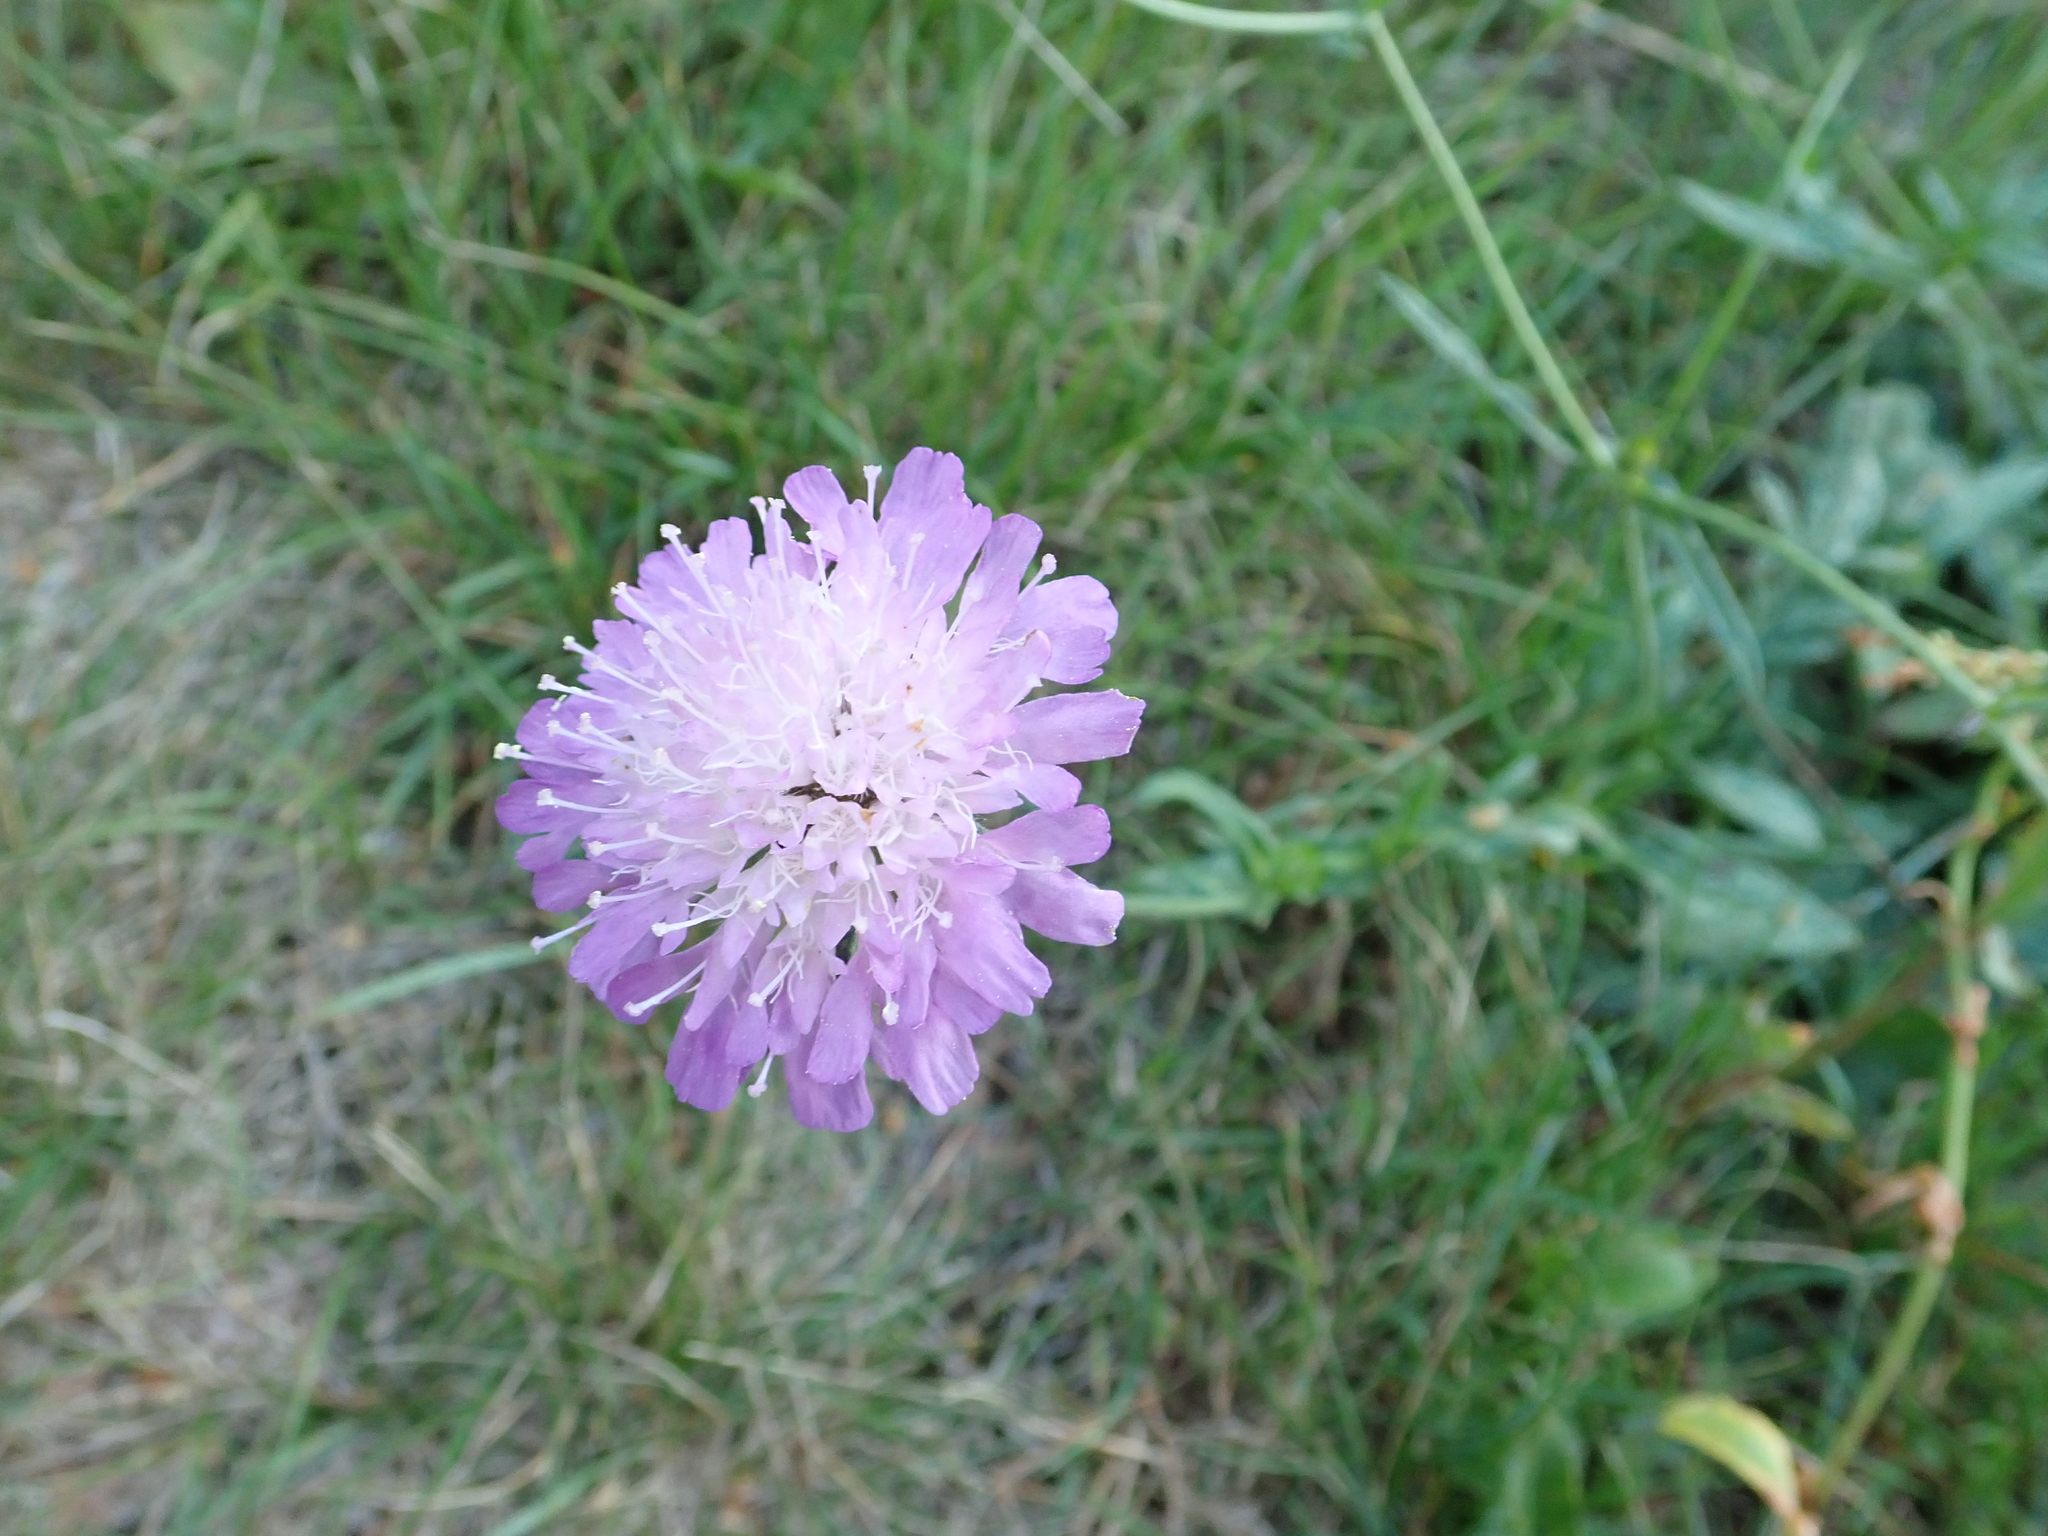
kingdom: Plantae
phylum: Tracheophyta
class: Magnoliopsida
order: Dipsacales
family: Caprifoliaceae
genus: Knautia
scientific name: Knautia arvensis
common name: Field scabiosa
